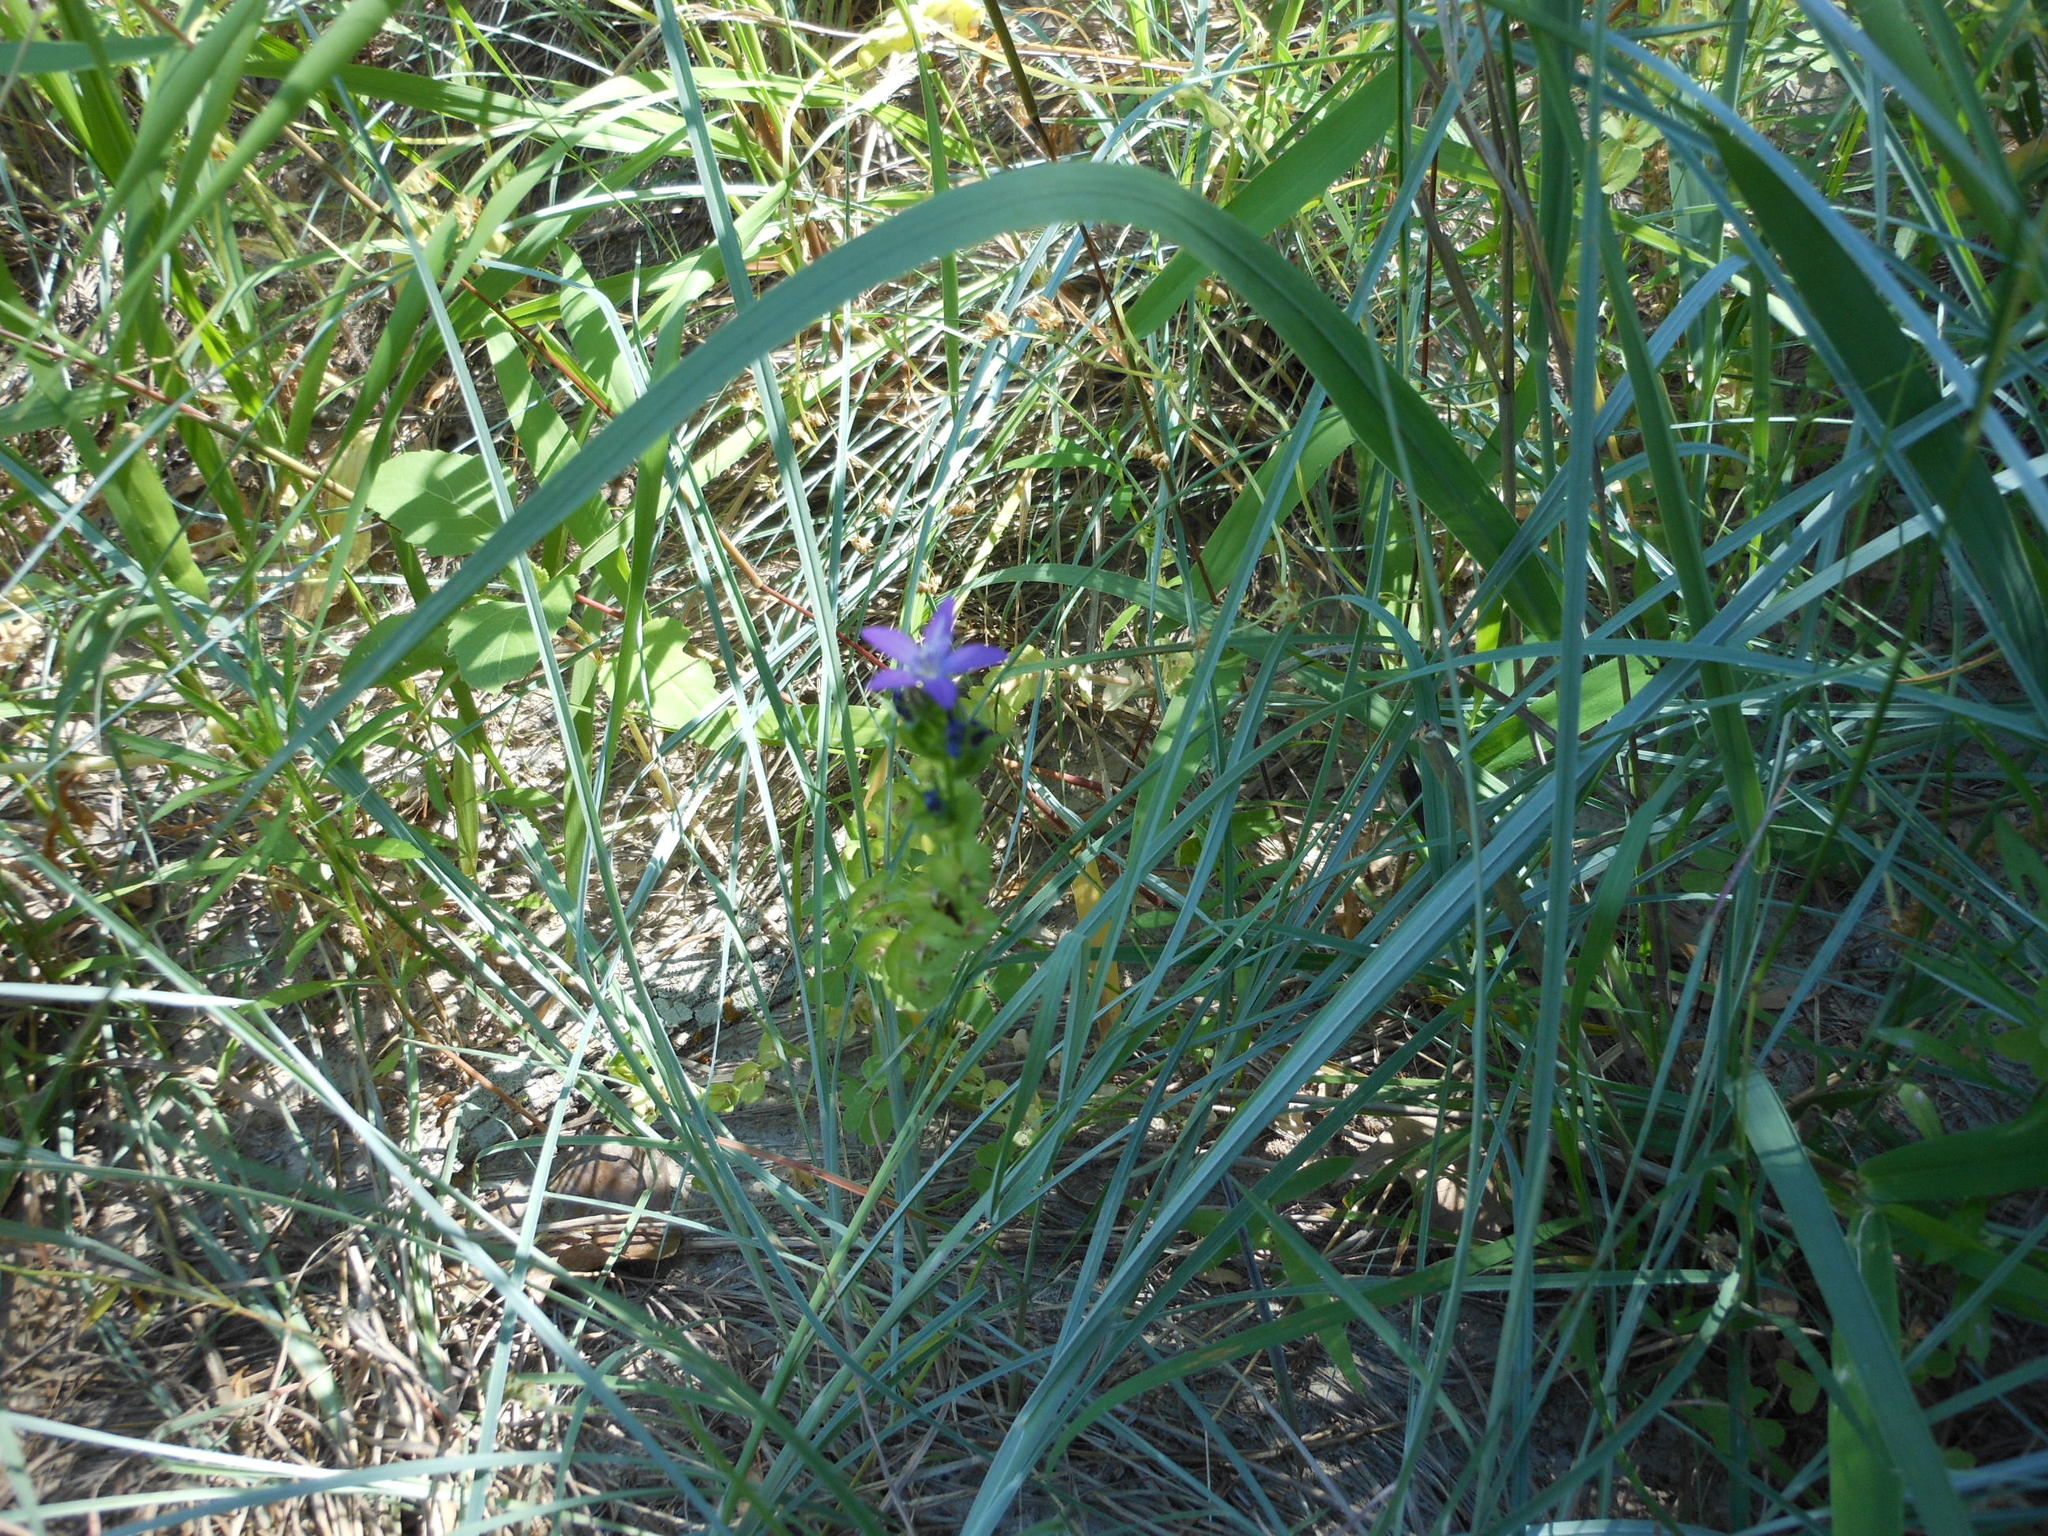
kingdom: Plantae
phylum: Tracheophyta
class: Magnoliopsida
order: Asterales
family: Campanulaceae
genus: Triodanis
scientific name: Triodanis perfoliata
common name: Clasping venus' looking-glass
